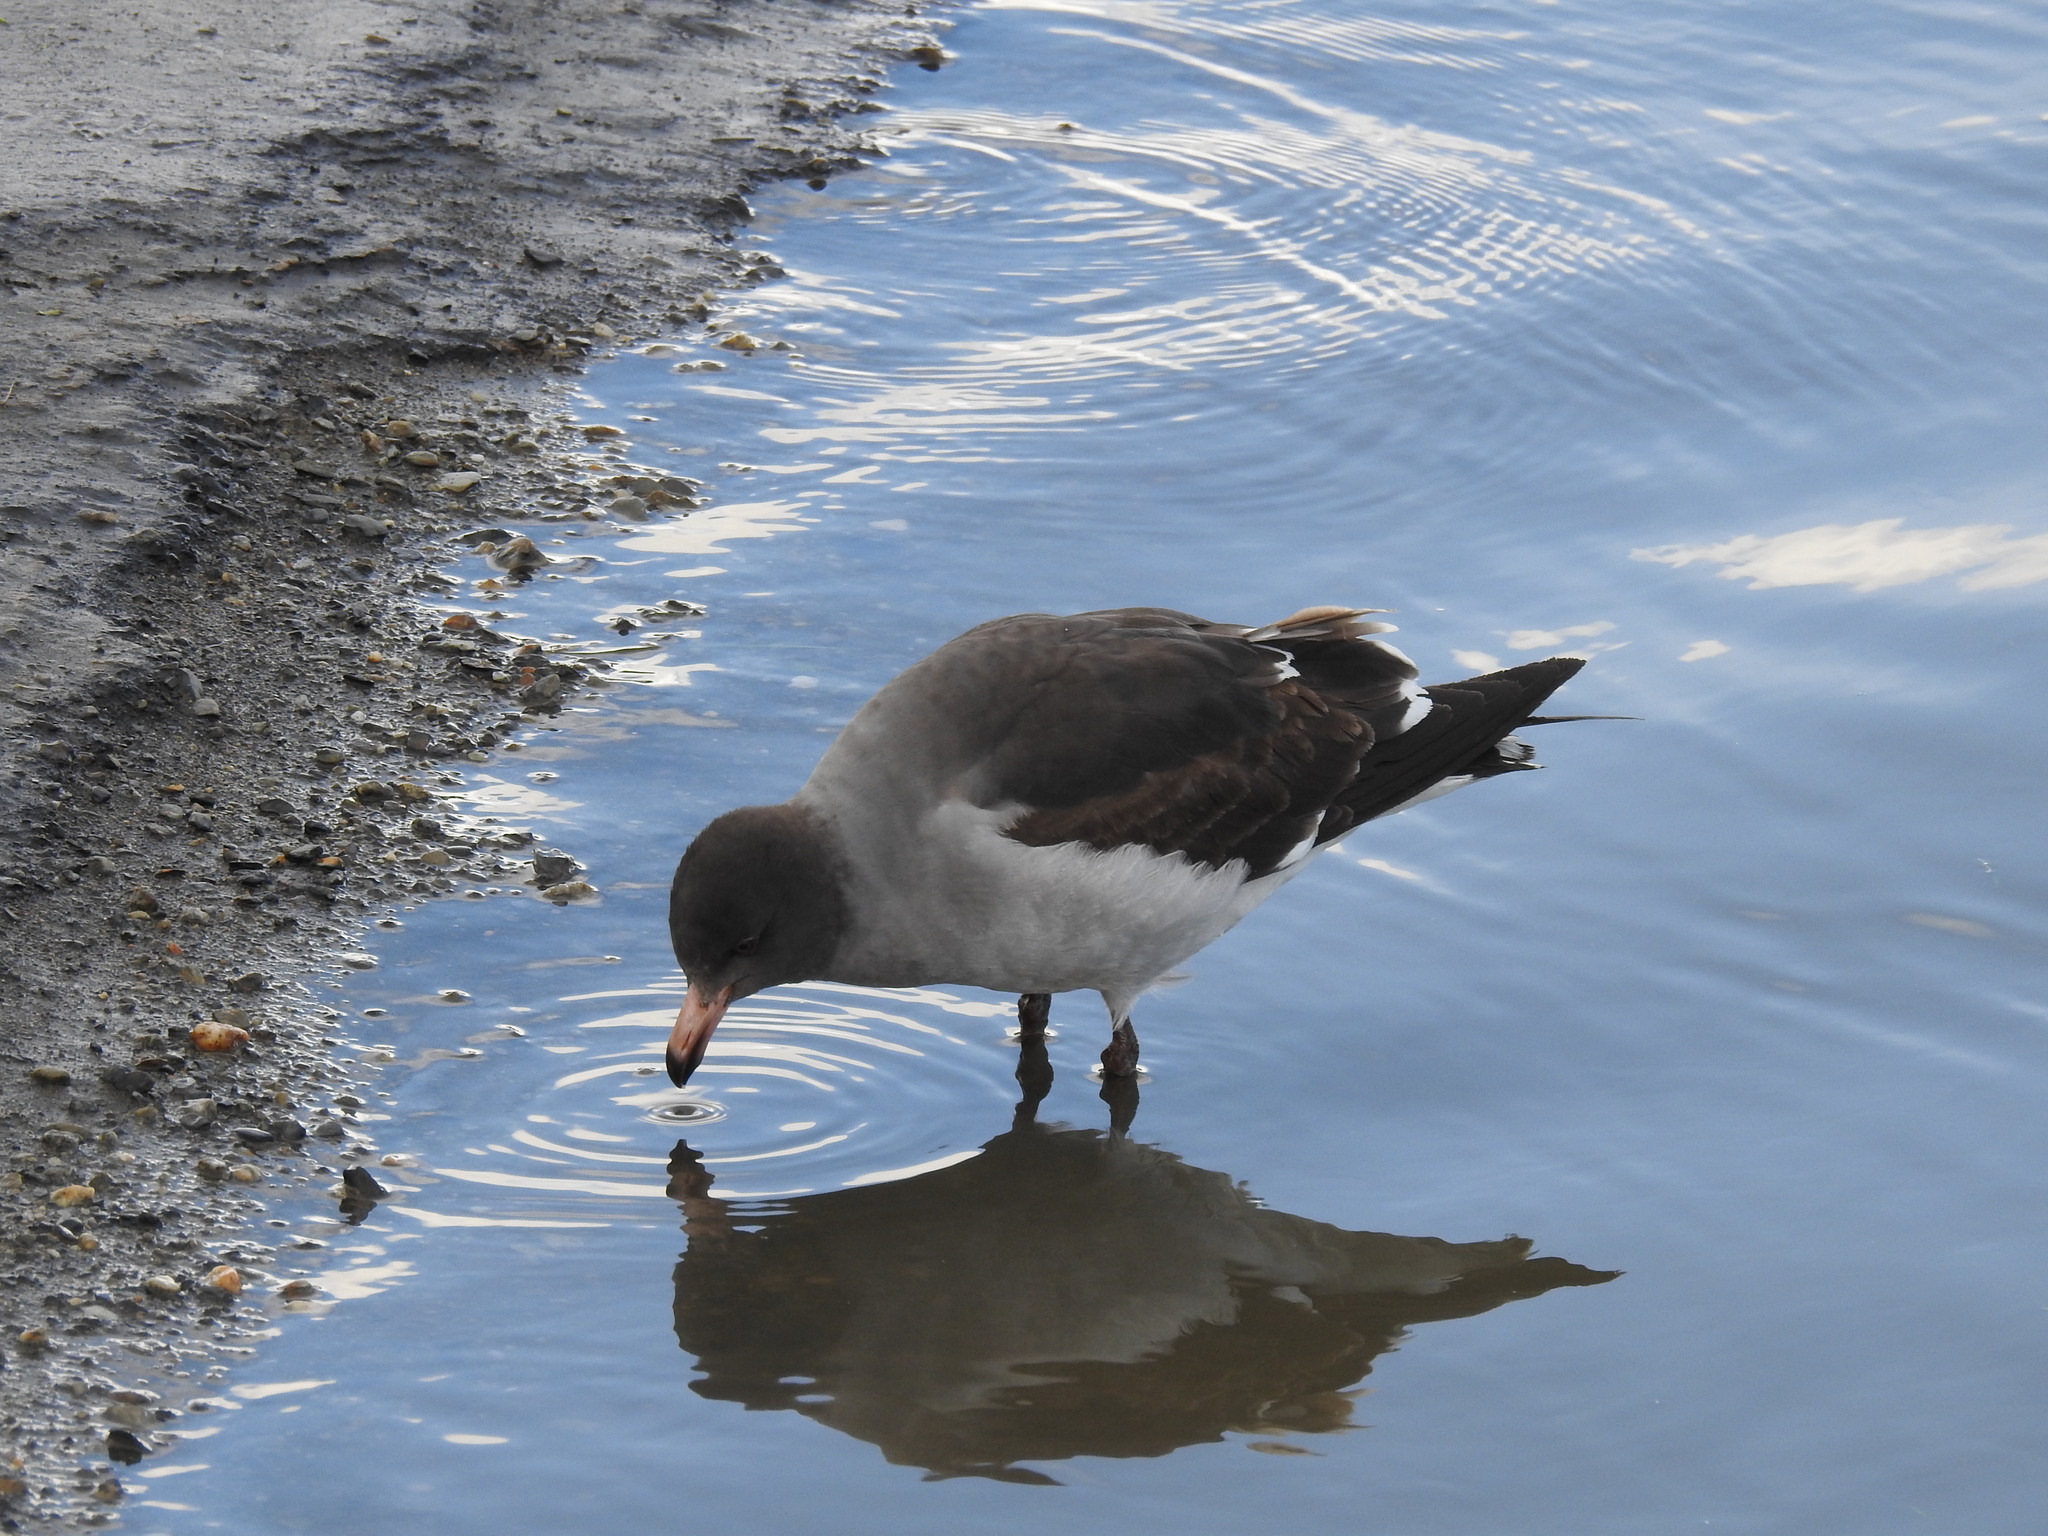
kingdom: Animalia
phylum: Chordata
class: Aves
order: Charadriiformes
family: Laridae
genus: Leucophaeus
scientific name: Leucophaeus scoresbii
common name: Dolphin gull
